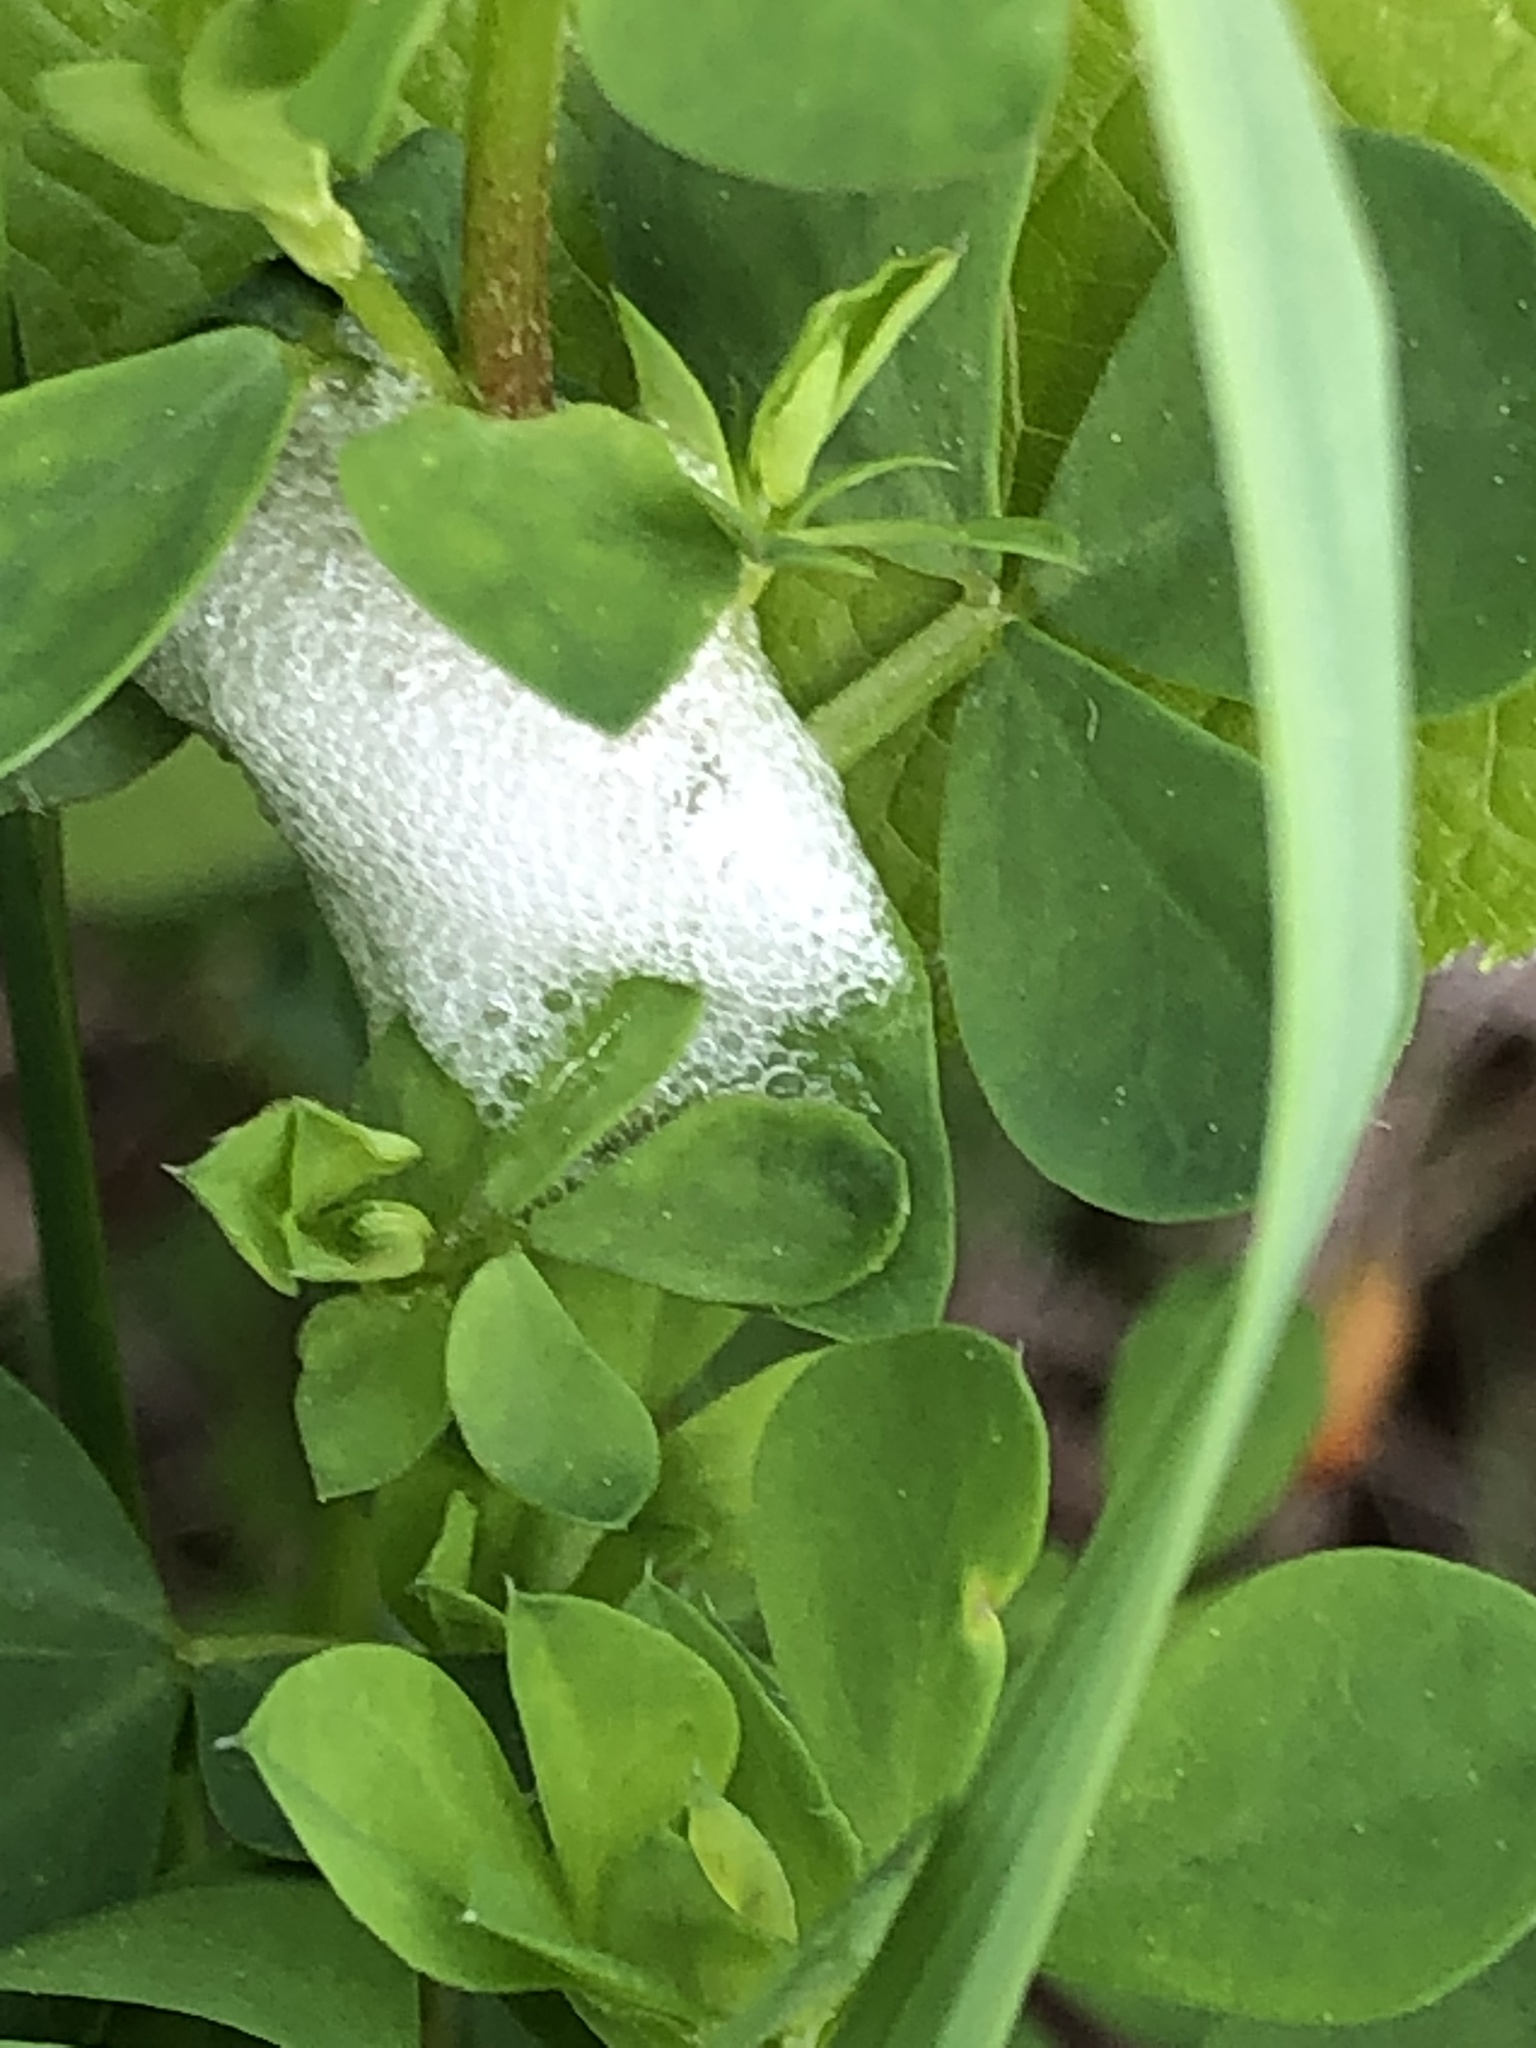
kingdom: Animalia
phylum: Arthropoda
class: Insecta
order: Hemiptera
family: Aphrophoridae
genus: Philaenus
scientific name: Philaenus spumarius
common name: Meadow spittlebug
